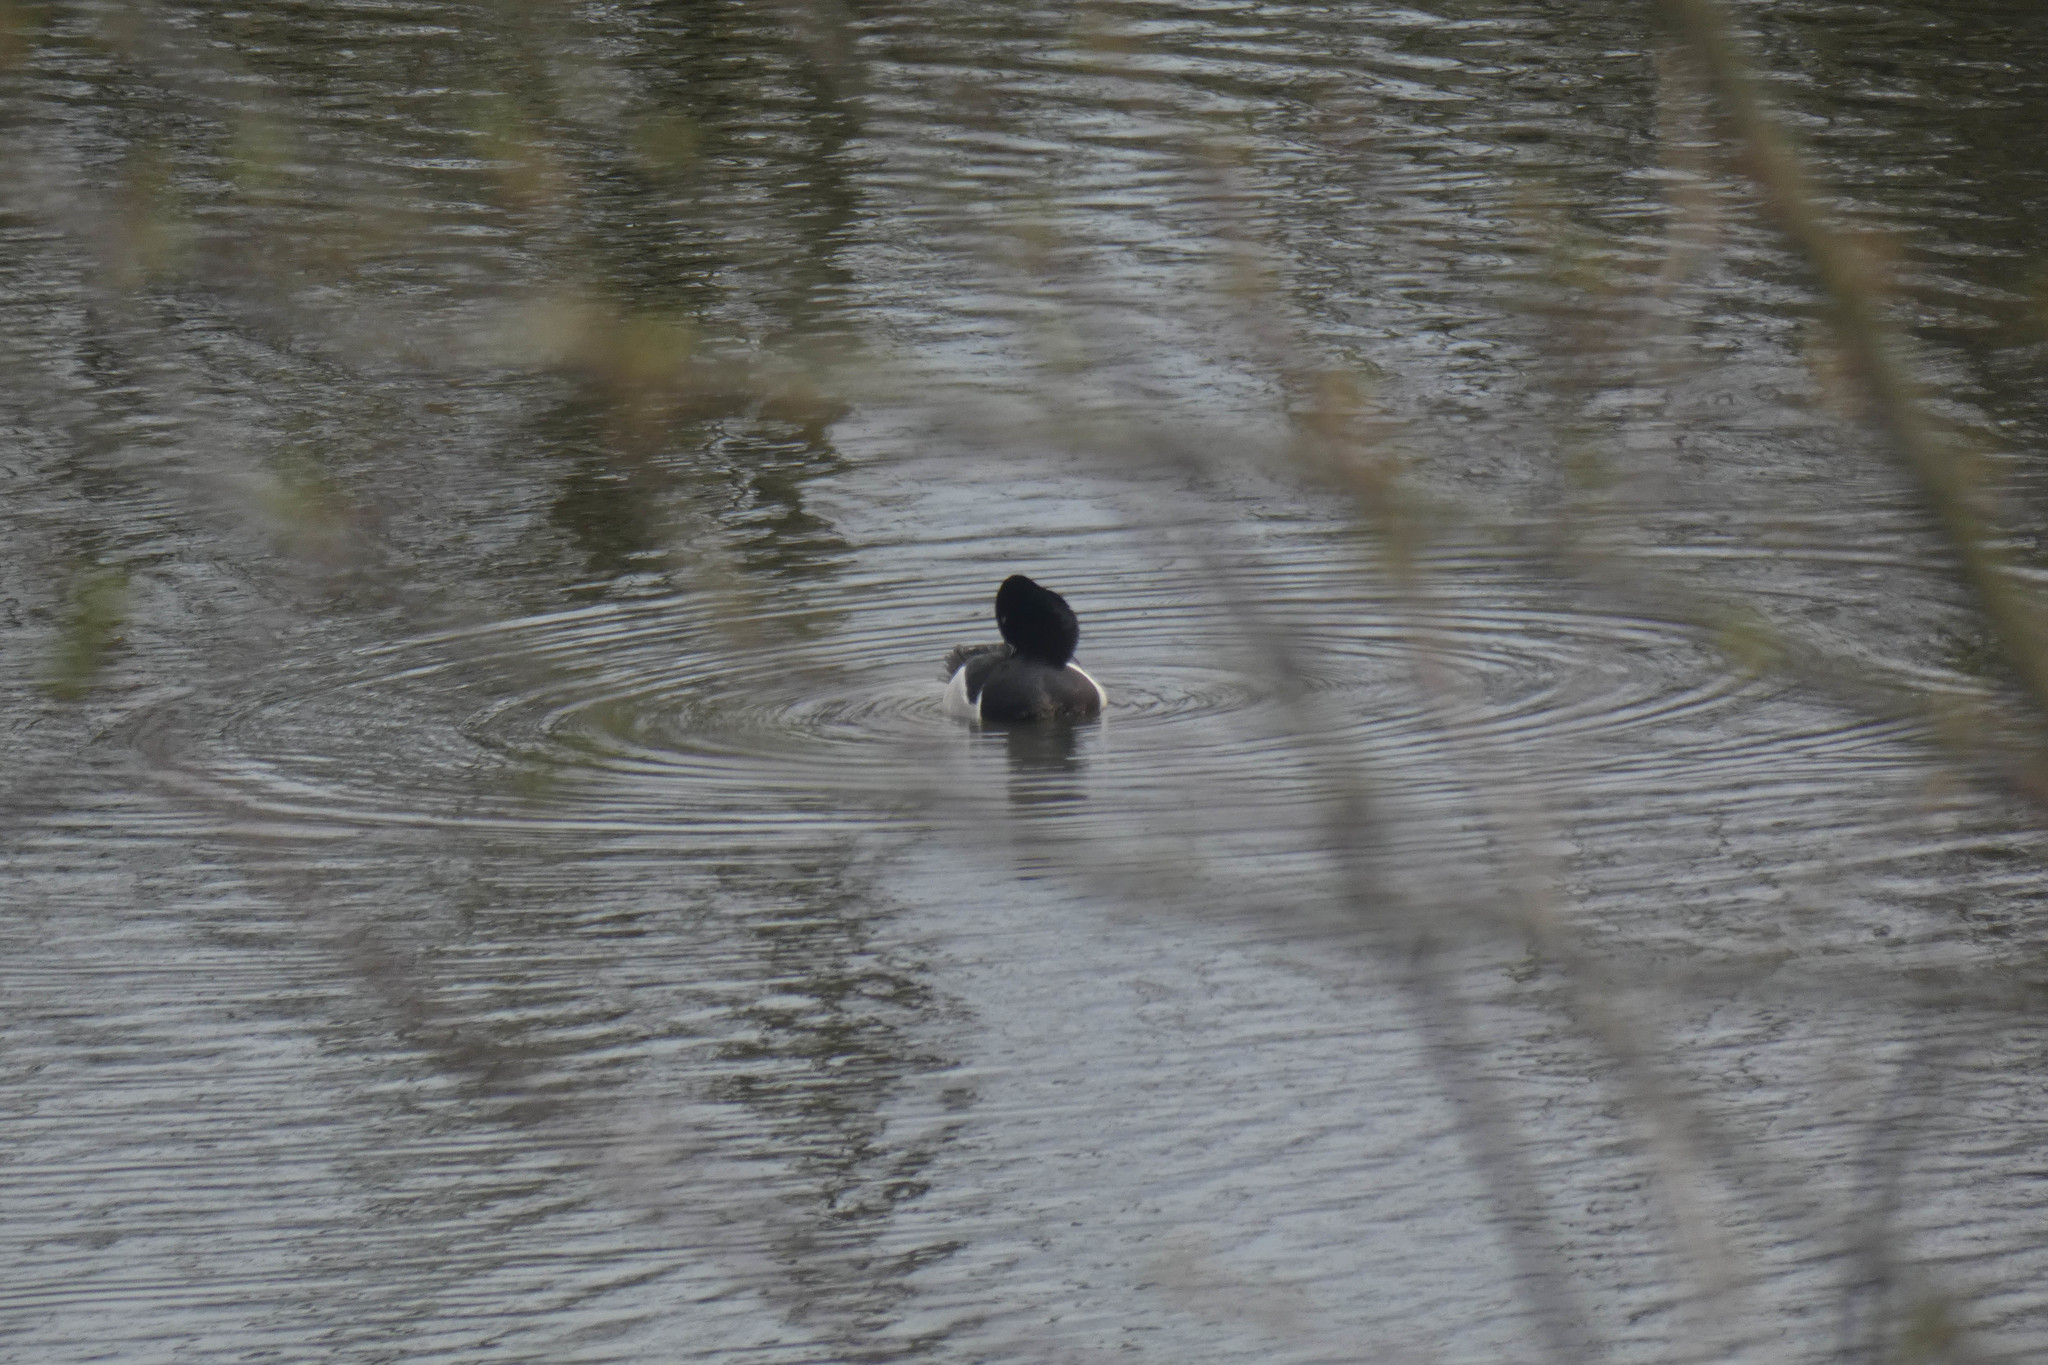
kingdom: Animalia
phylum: Chordata
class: Aves
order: Anseriformes
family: Anatidae
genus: Aythya
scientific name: Aythya collaris
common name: Ring-necked duck
